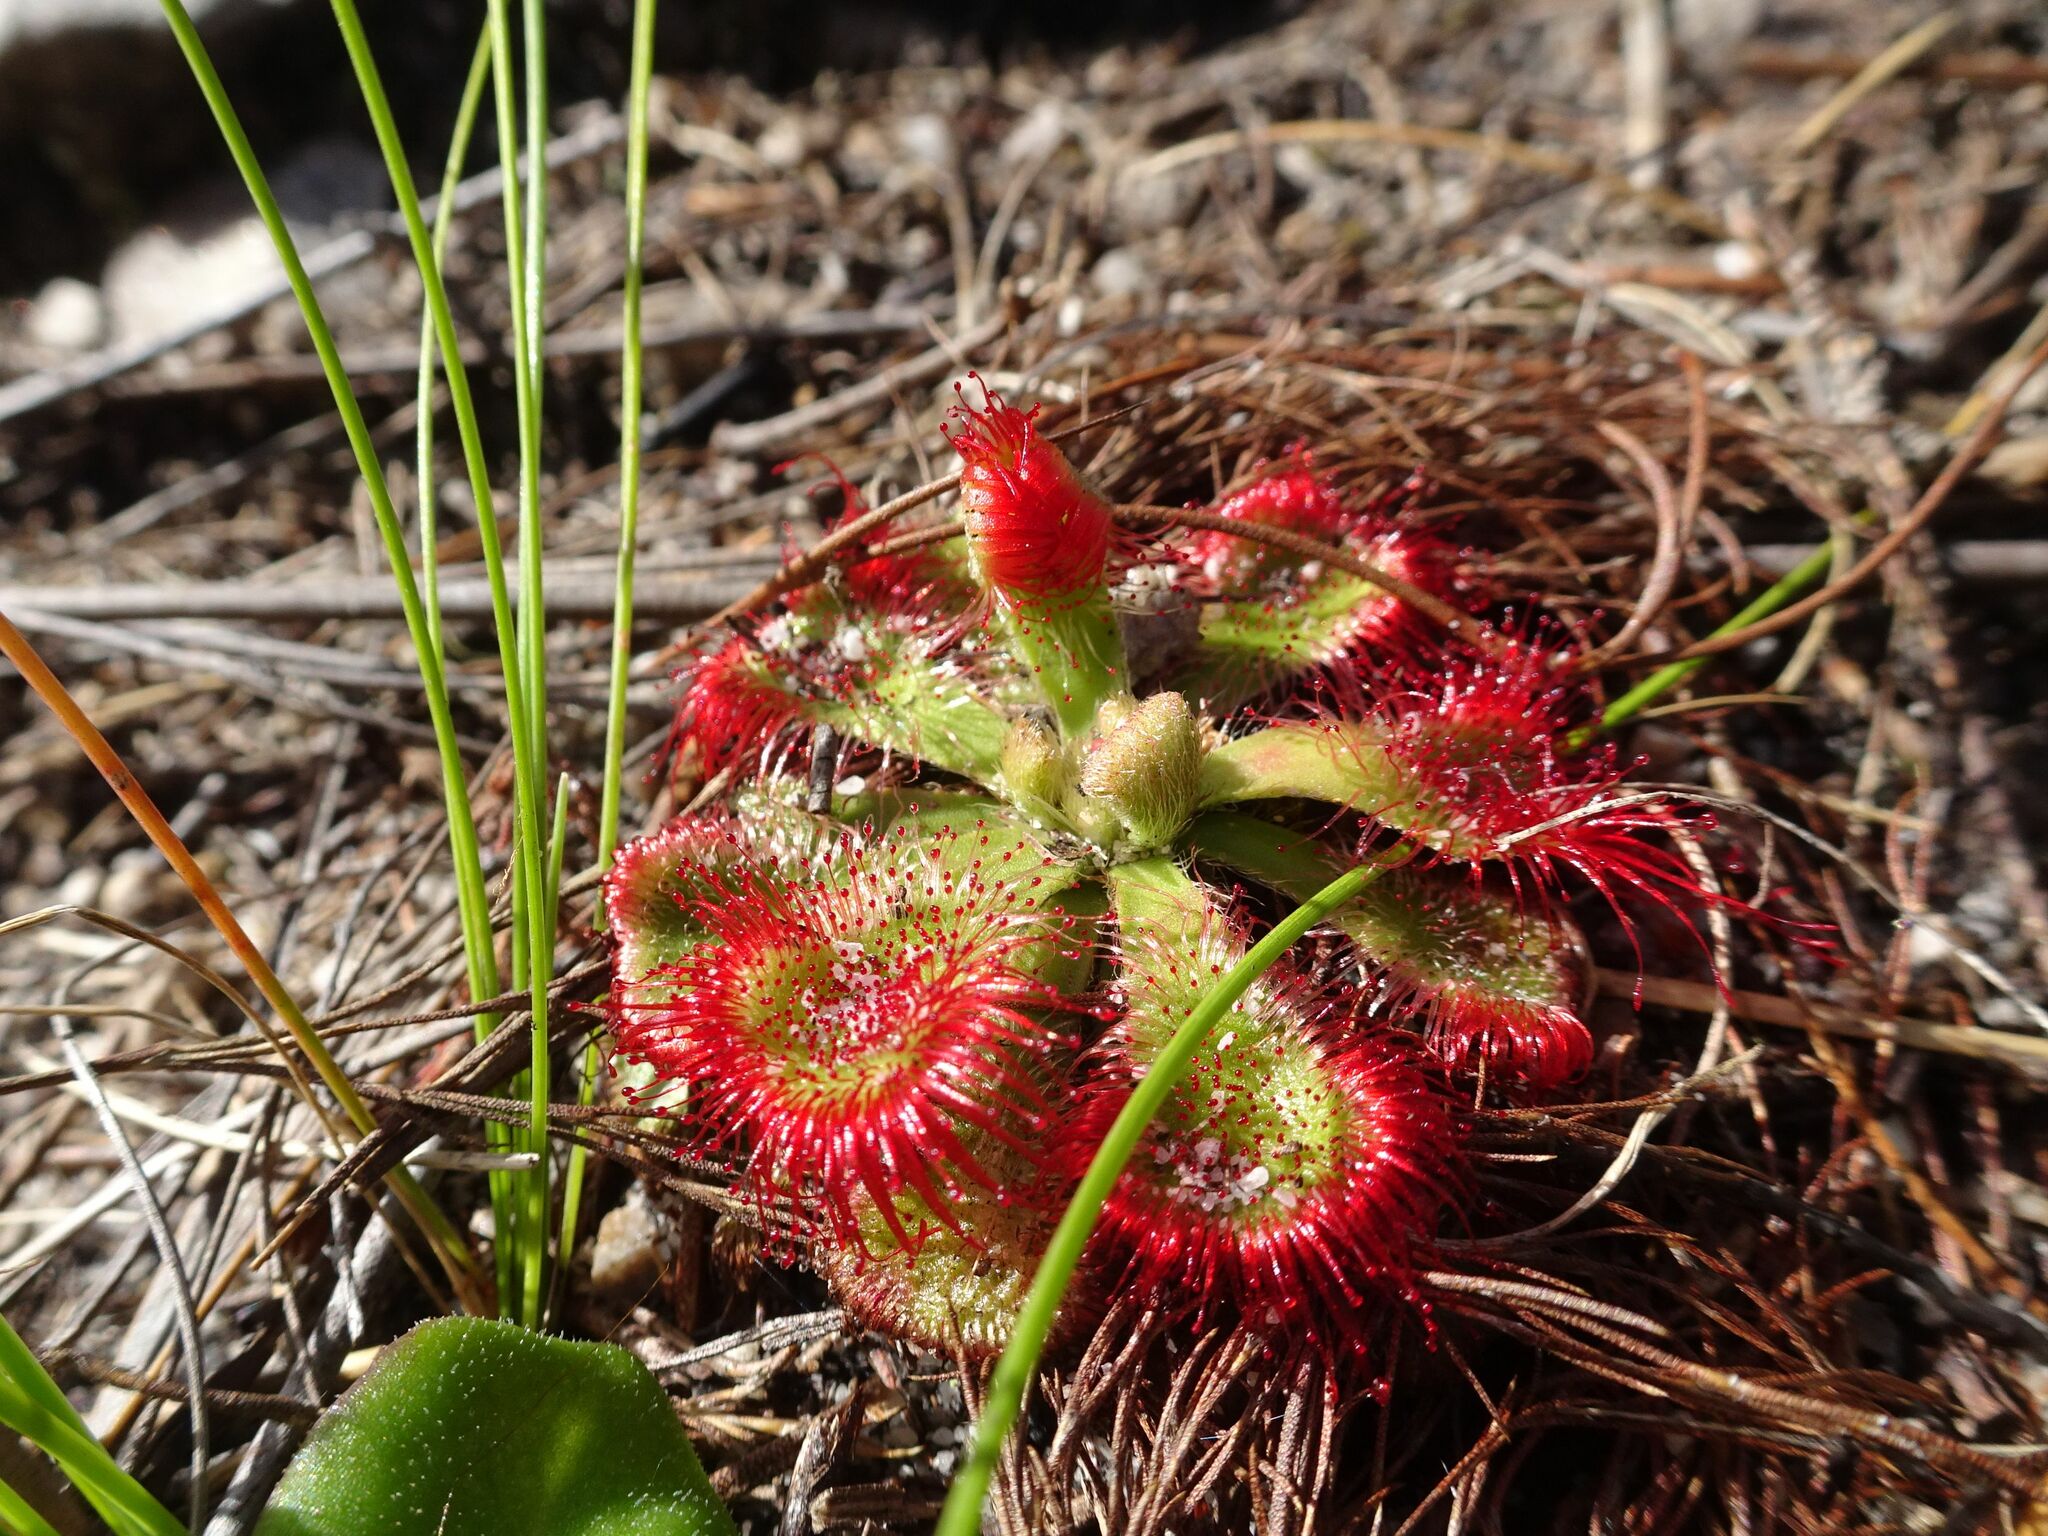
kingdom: Plantae
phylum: Tracheophyta
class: Magnoliopsida
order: Caryophyllales
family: Droseraceae
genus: Drosera
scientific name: Drosera xerophila
